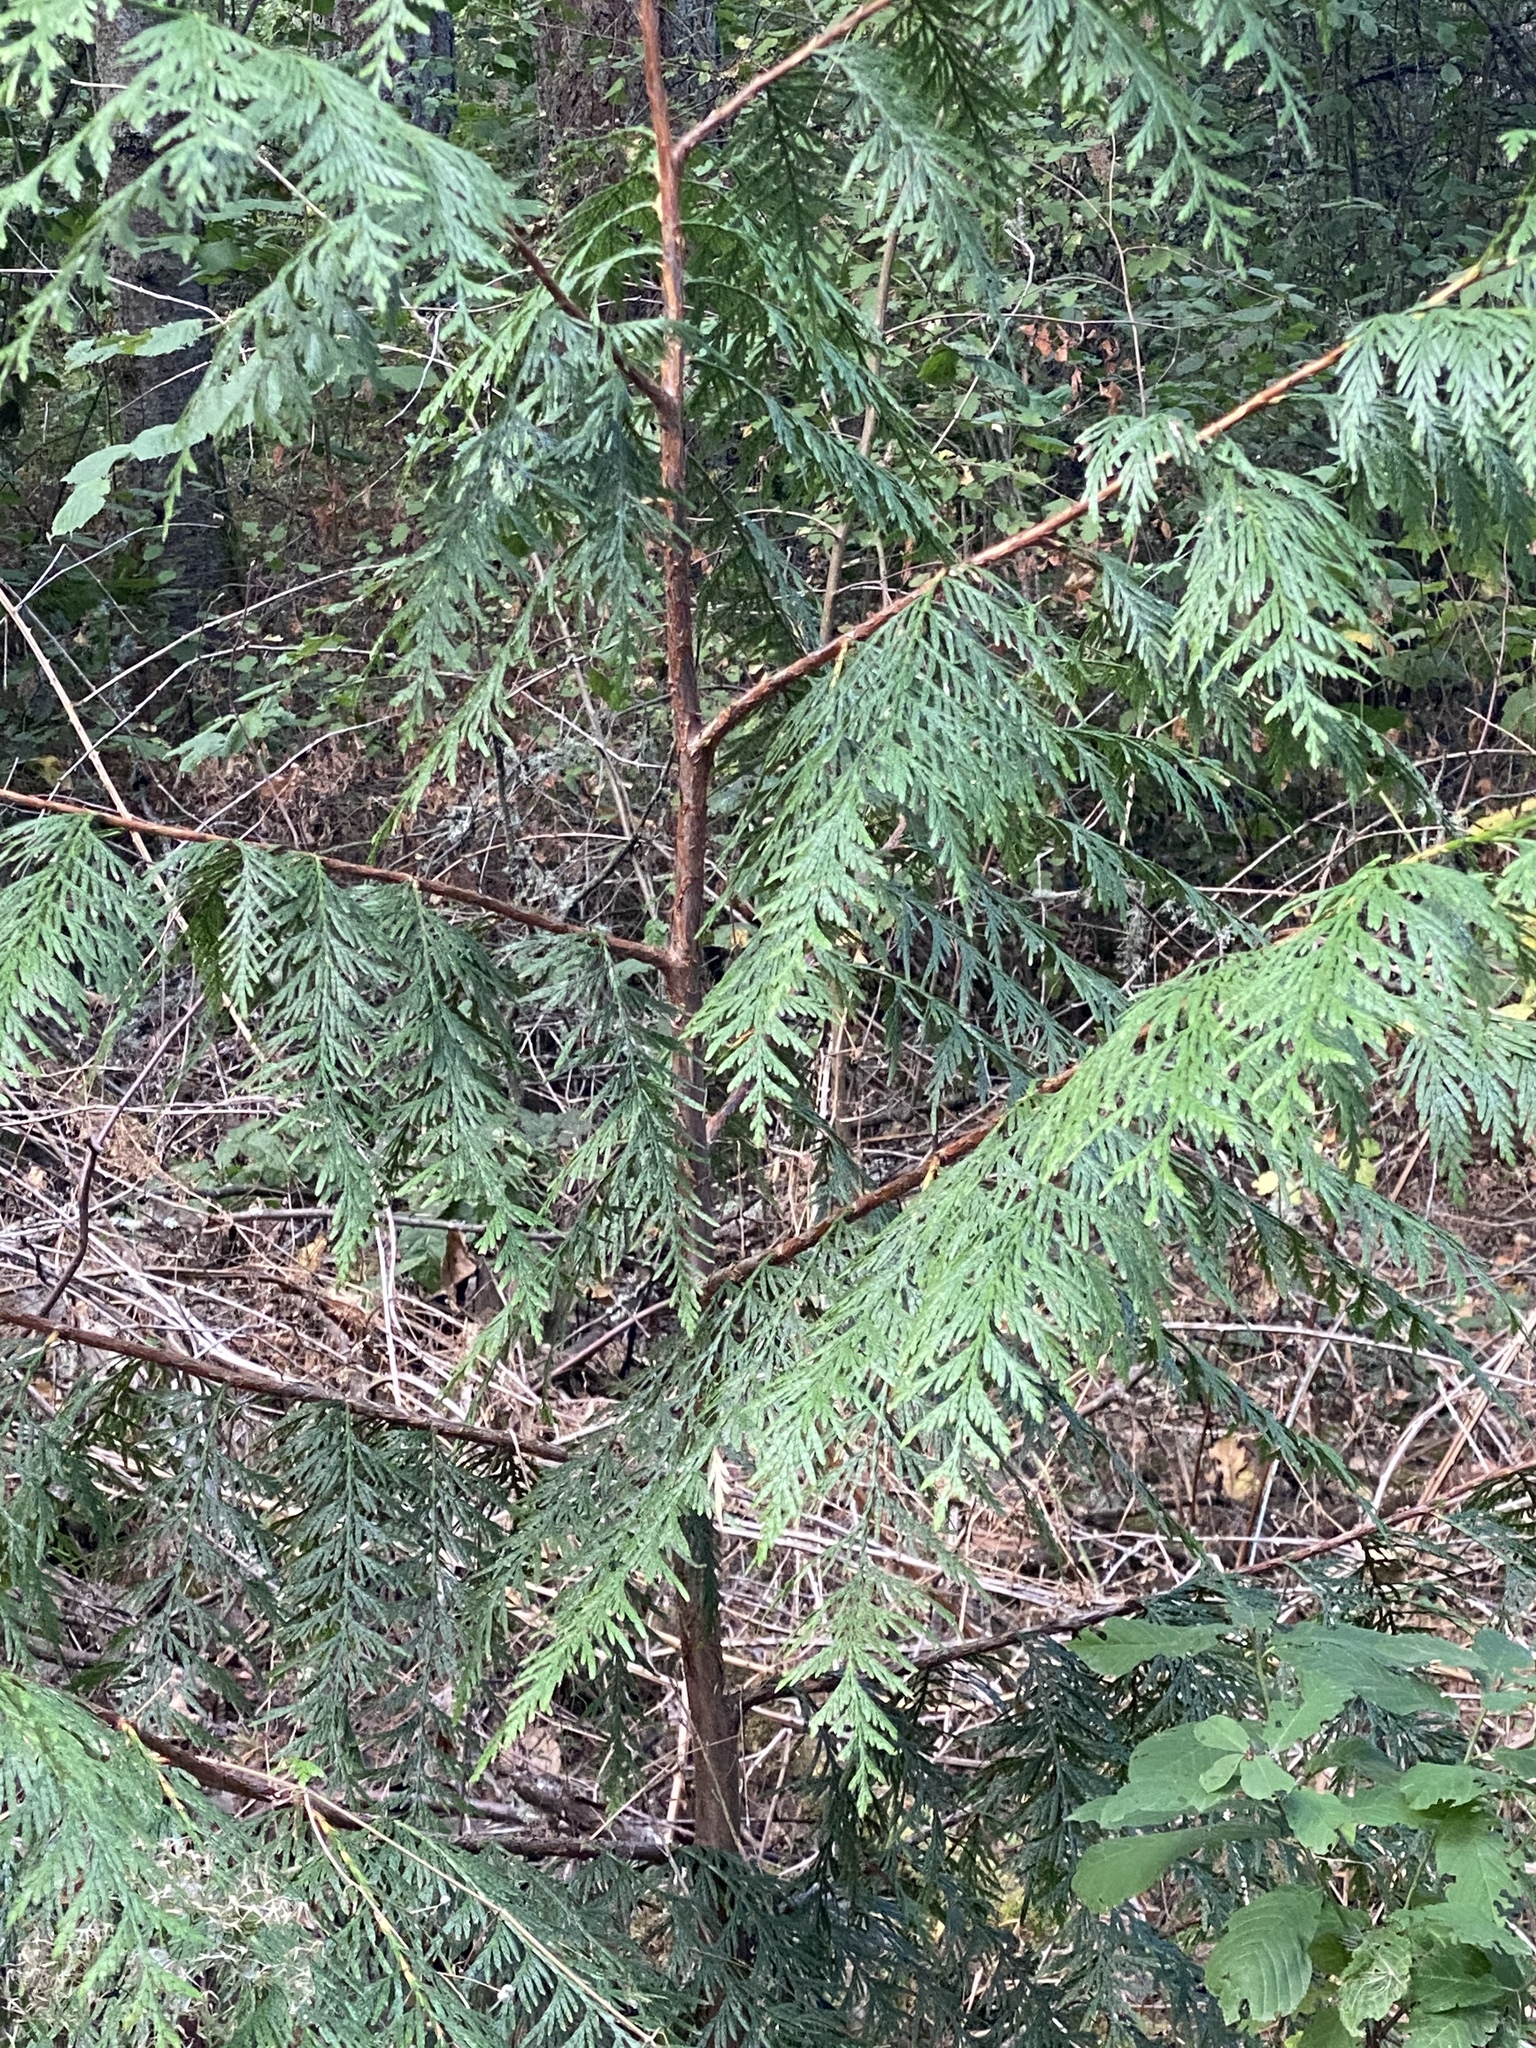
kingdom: Plantae
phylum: Tracheophyta
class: Pinopsida
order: Pinales
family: Cupressaceae
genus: Thuja
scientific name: Thuja plicata
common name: Western red-cedar
